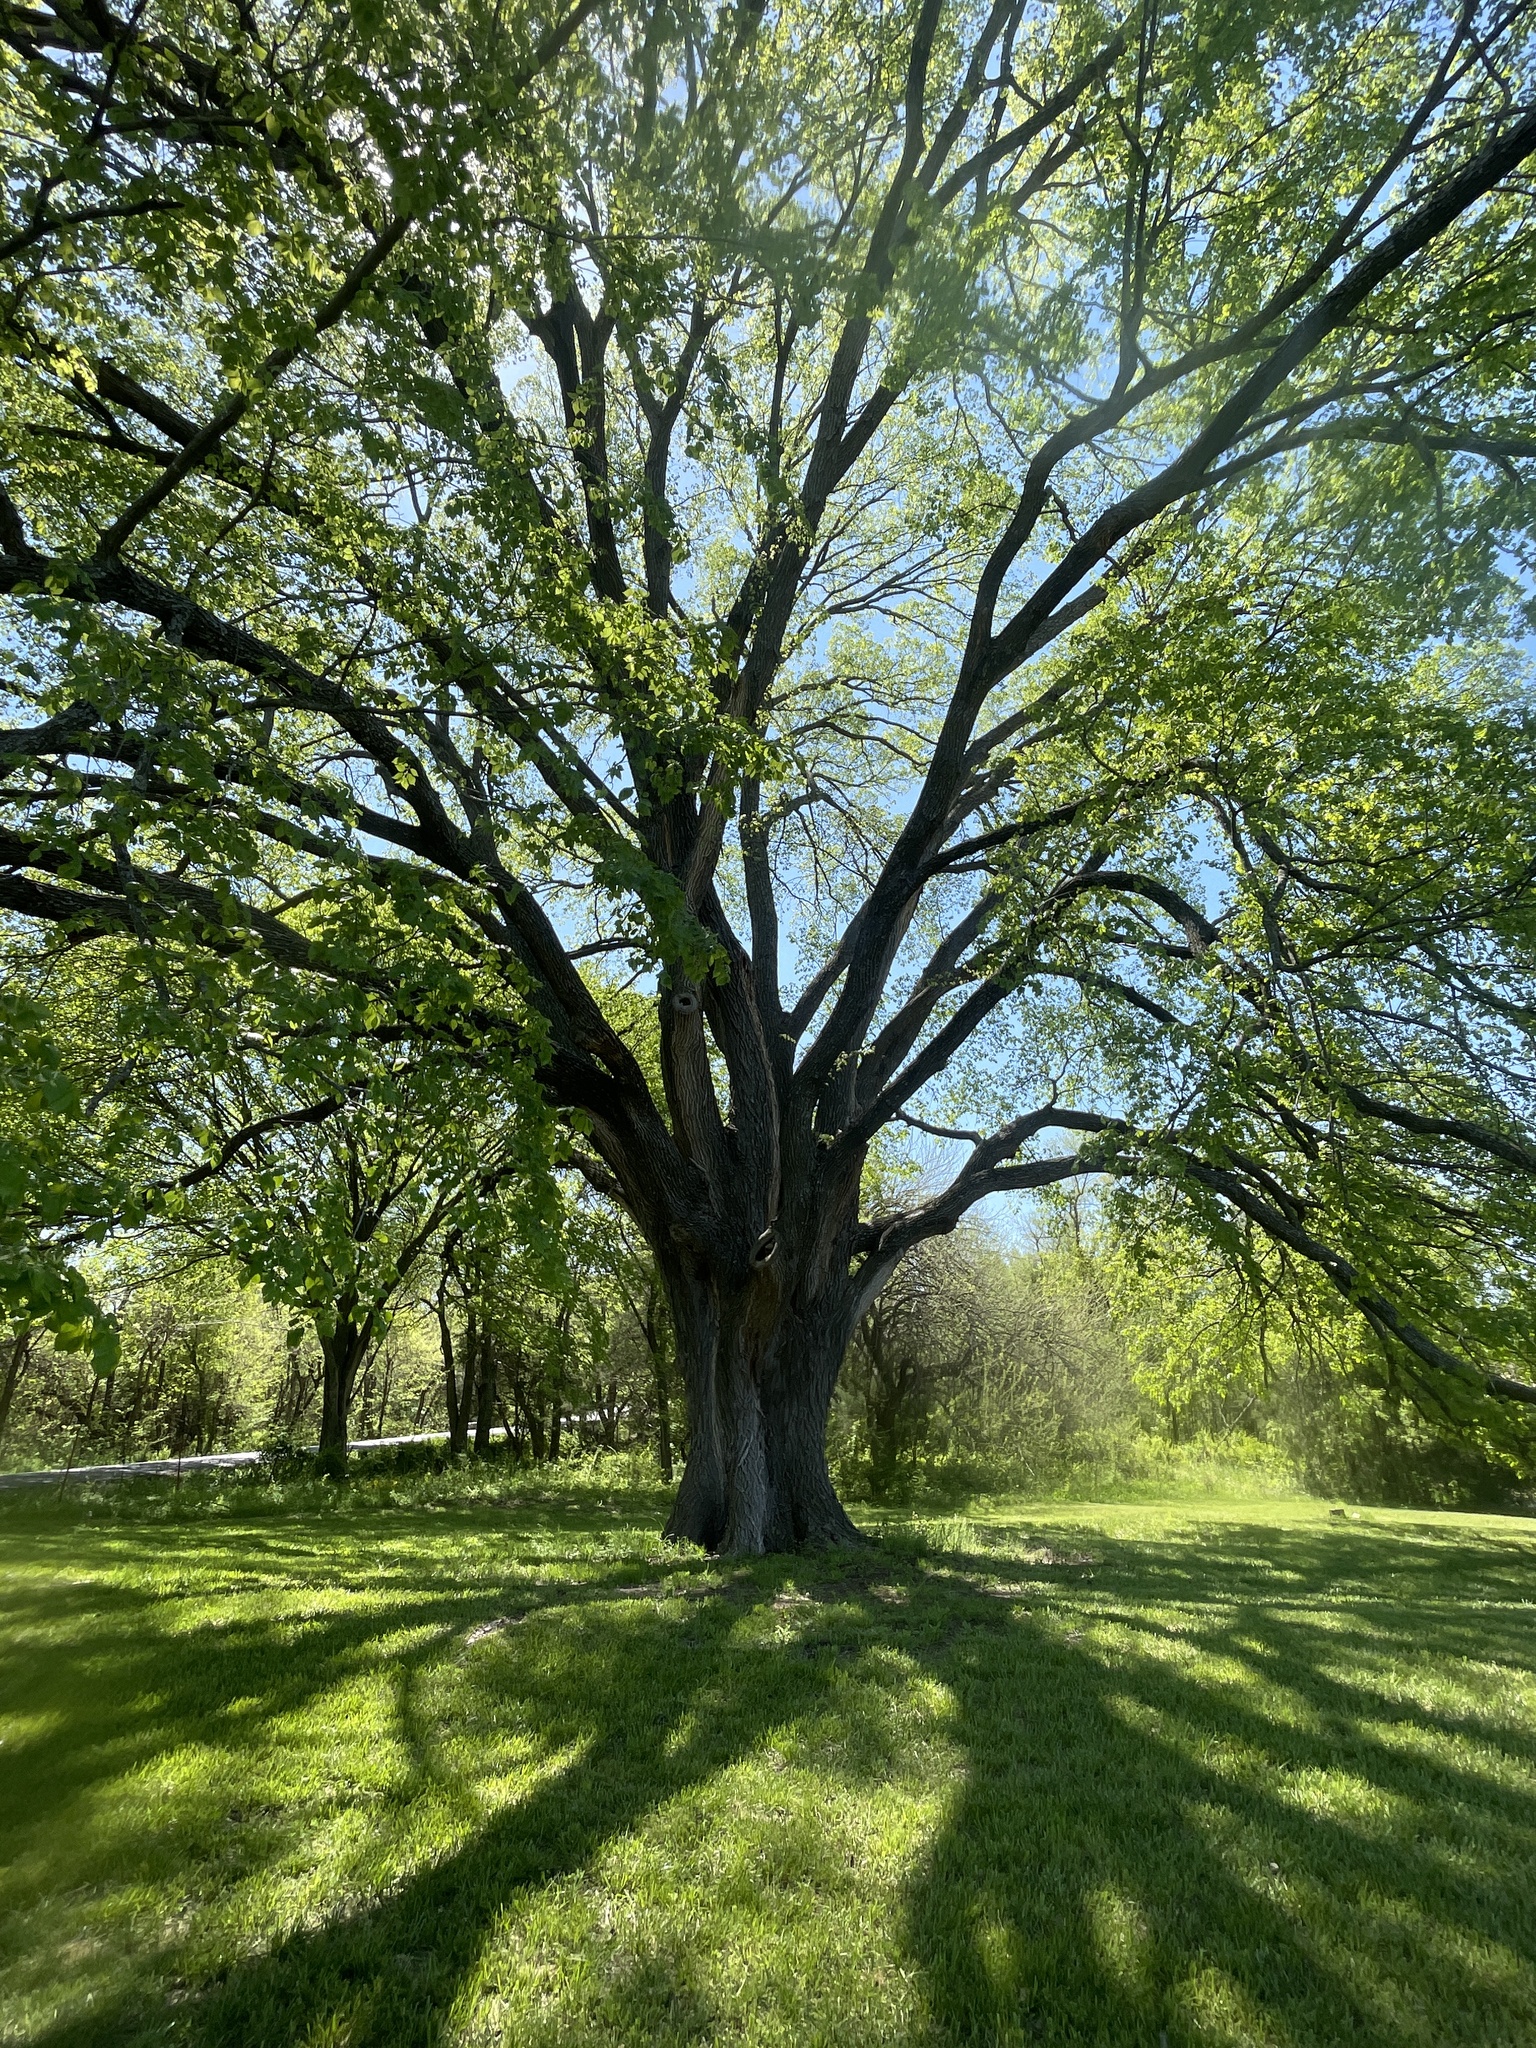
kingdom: Plantae
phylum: Tracheophyta
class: Magnoliopsida
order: Rosales
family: Ulmaceae
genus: Ulmus
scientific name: Ulmus americana
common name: American elm
